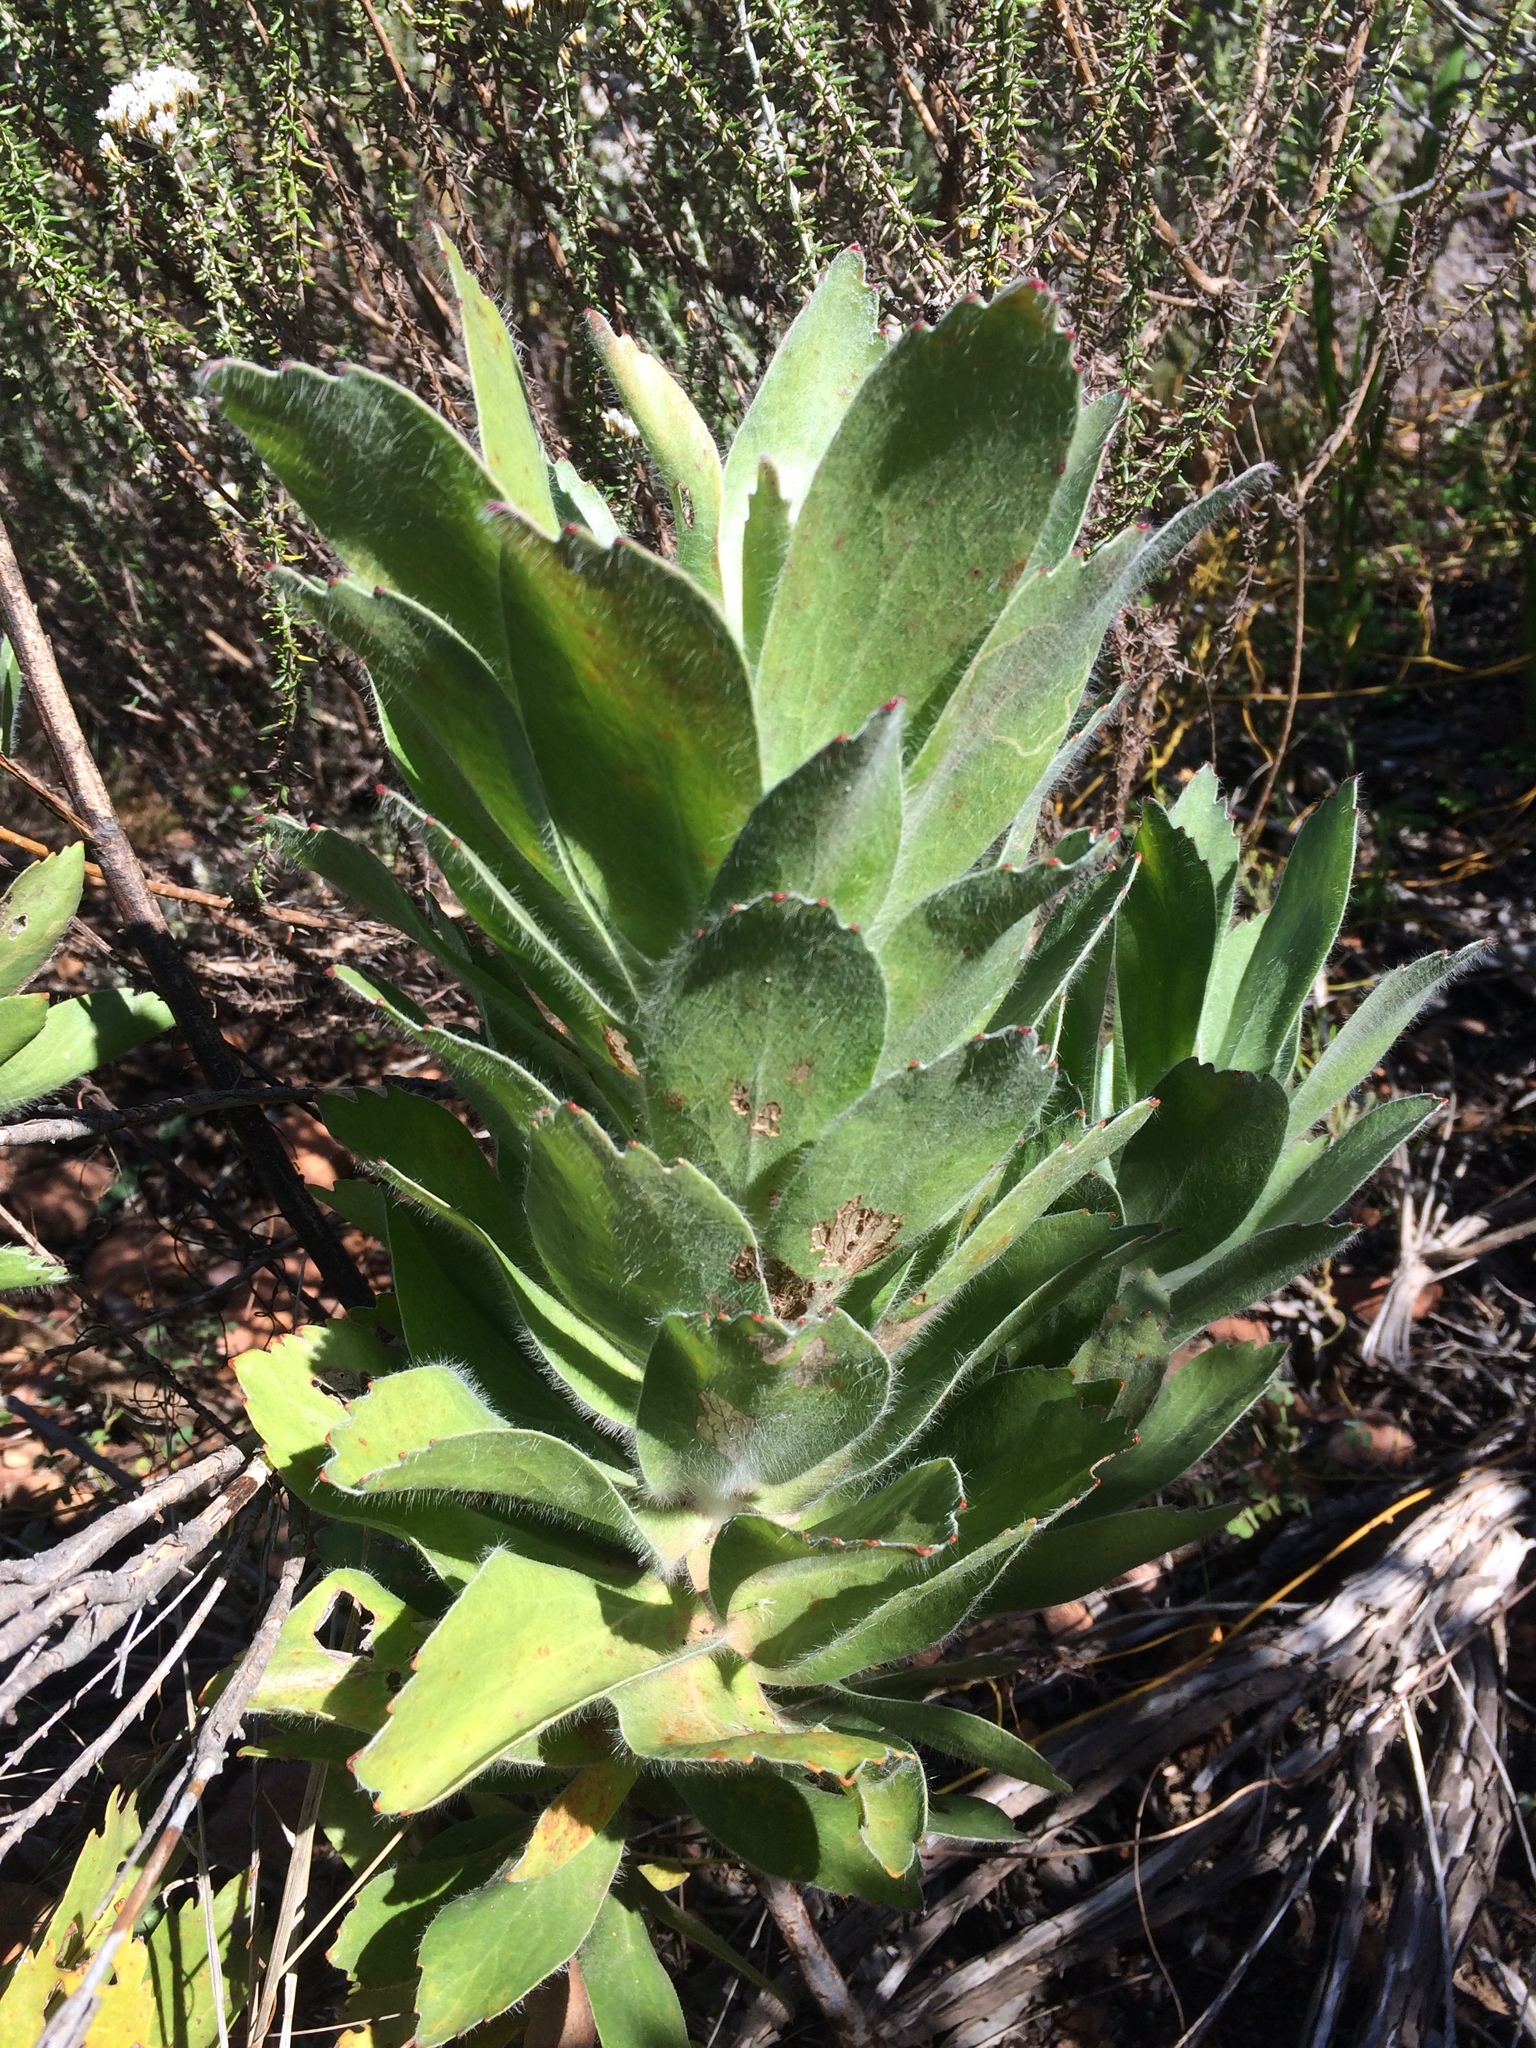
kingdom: Plantae
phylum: Tracheophyta
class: Magnoliopsida
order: Proteales
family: Proteaceae
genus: Leucospermum
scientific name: Leucospermum conocarpodendron
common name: Tree pincushion
